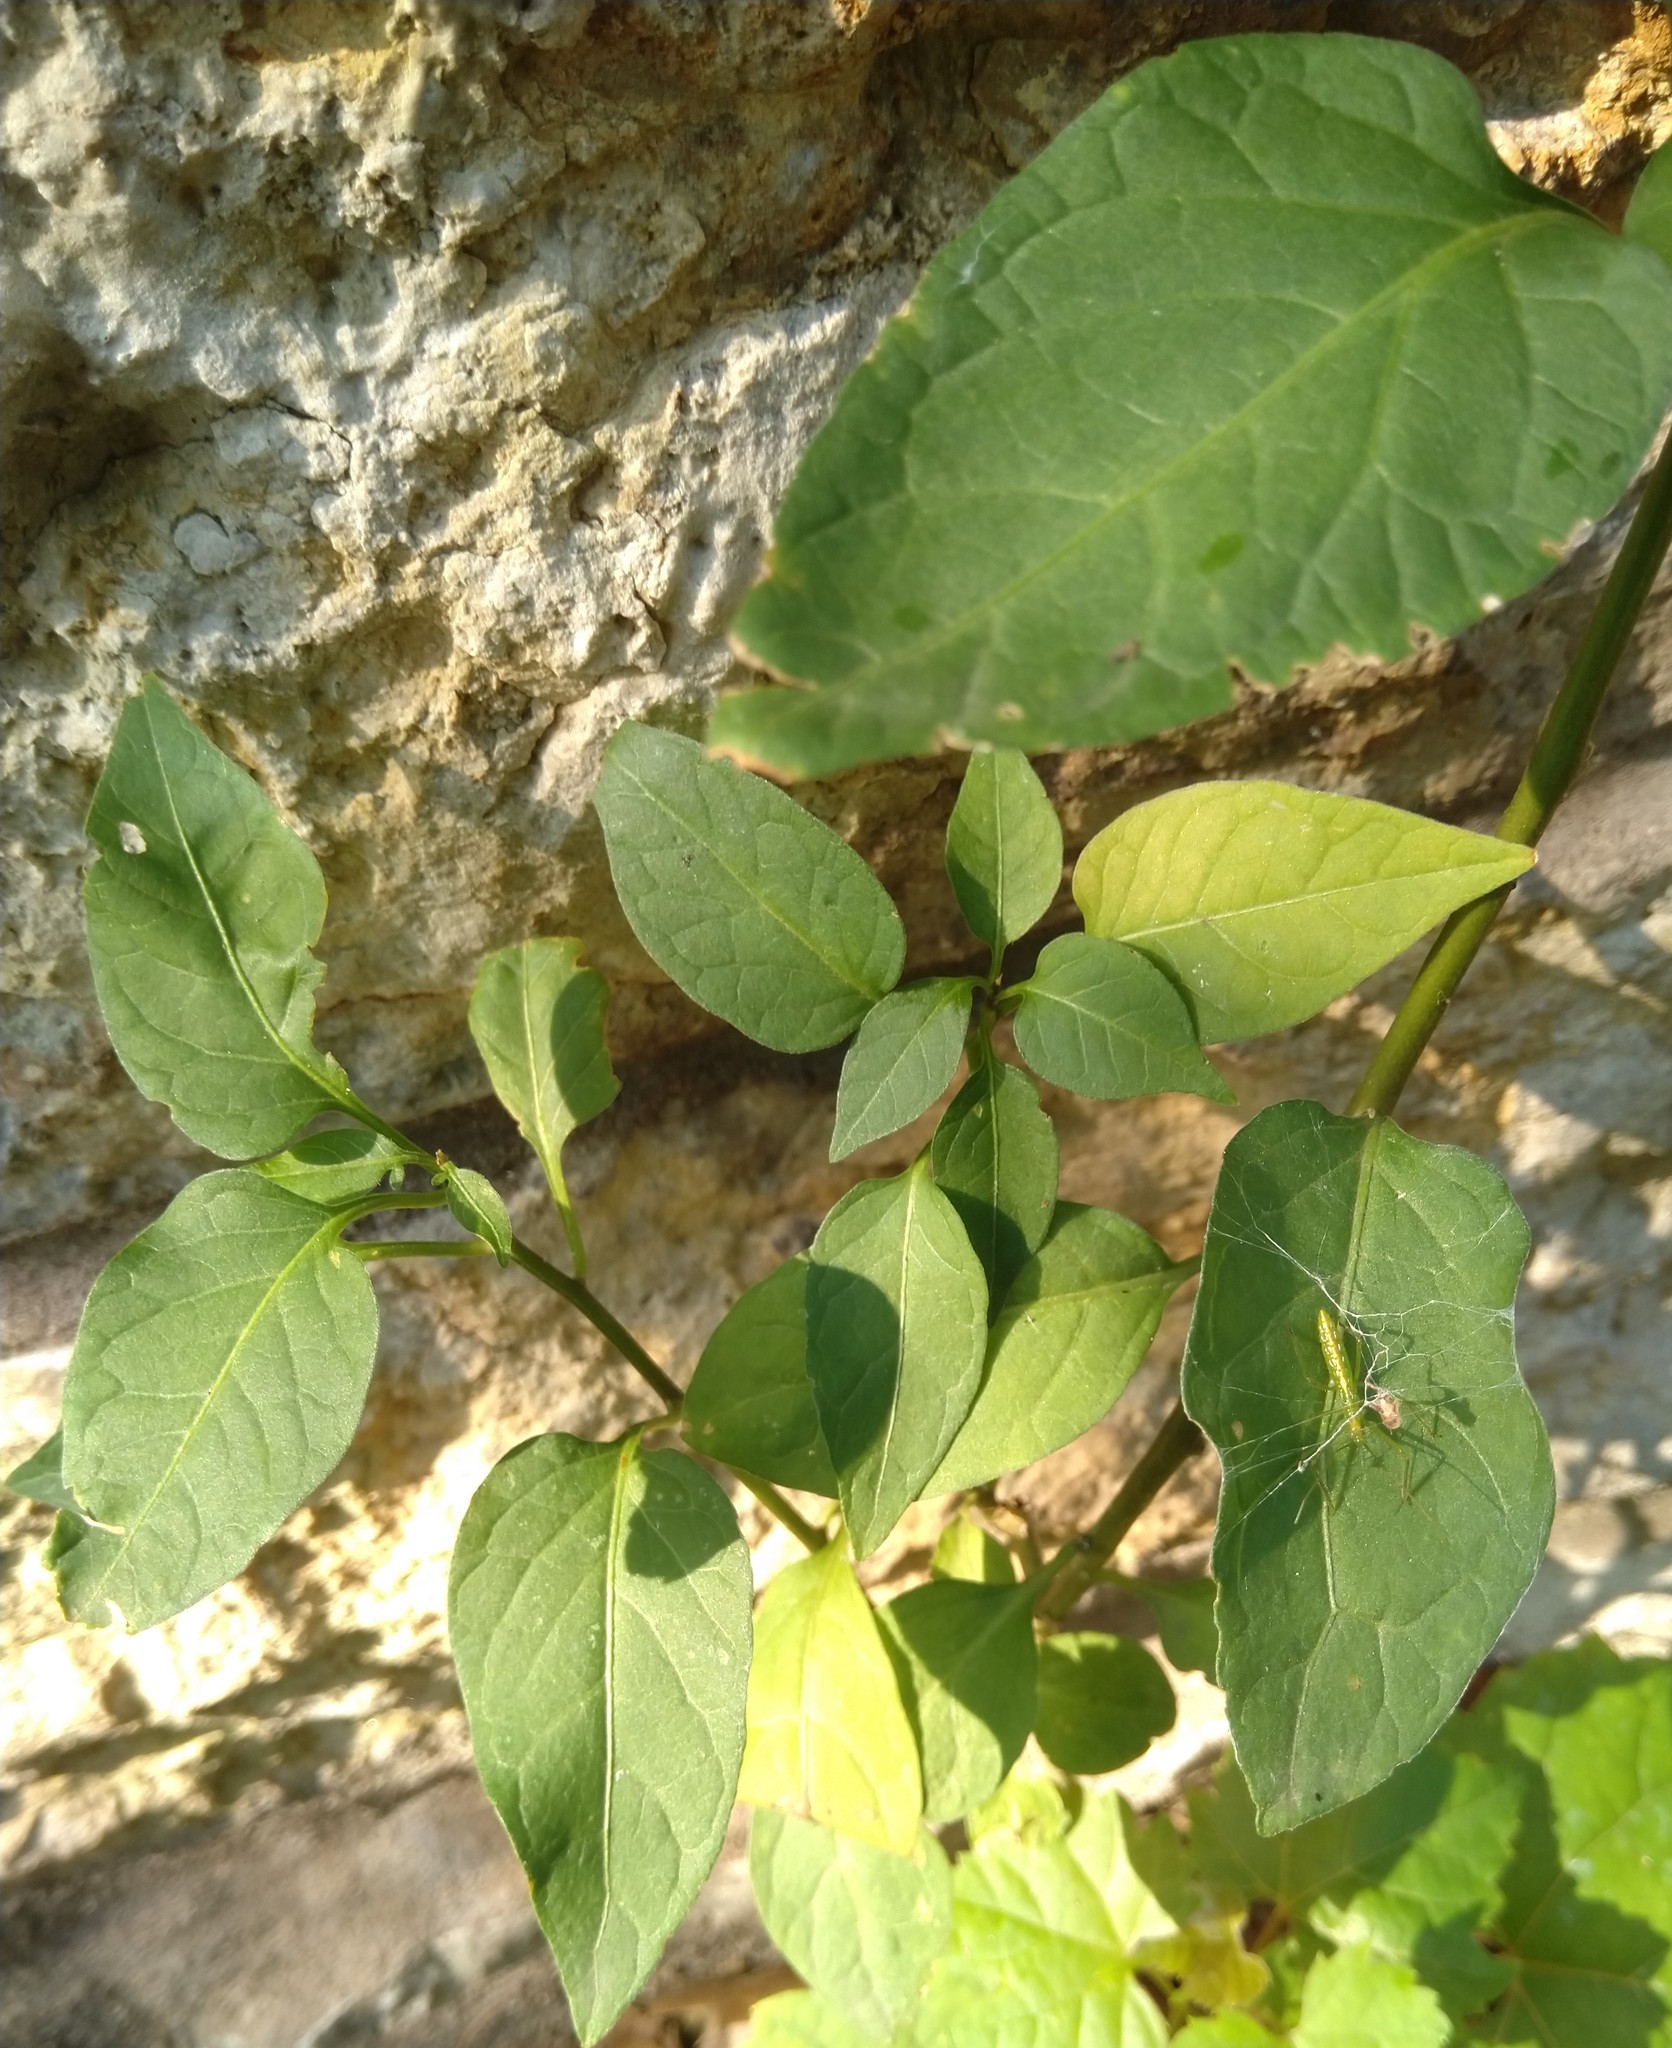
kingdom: Plantae
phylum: Tracheophyta
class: Magnoliopsida
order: Solanales
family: Solanaceae
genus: Solanum
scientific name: Solanum dulcamara
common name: Climbing nightshade
